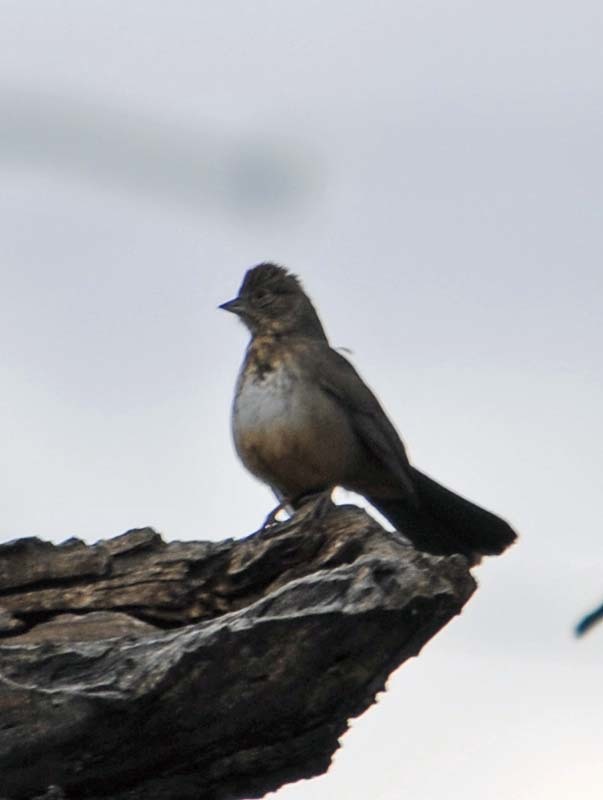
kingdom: Animalia
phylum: Chordata
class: Aves
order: Passeriformes
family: Passerellidae
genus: Melozone
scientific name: Melozone fusca
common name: Canyon towhee
